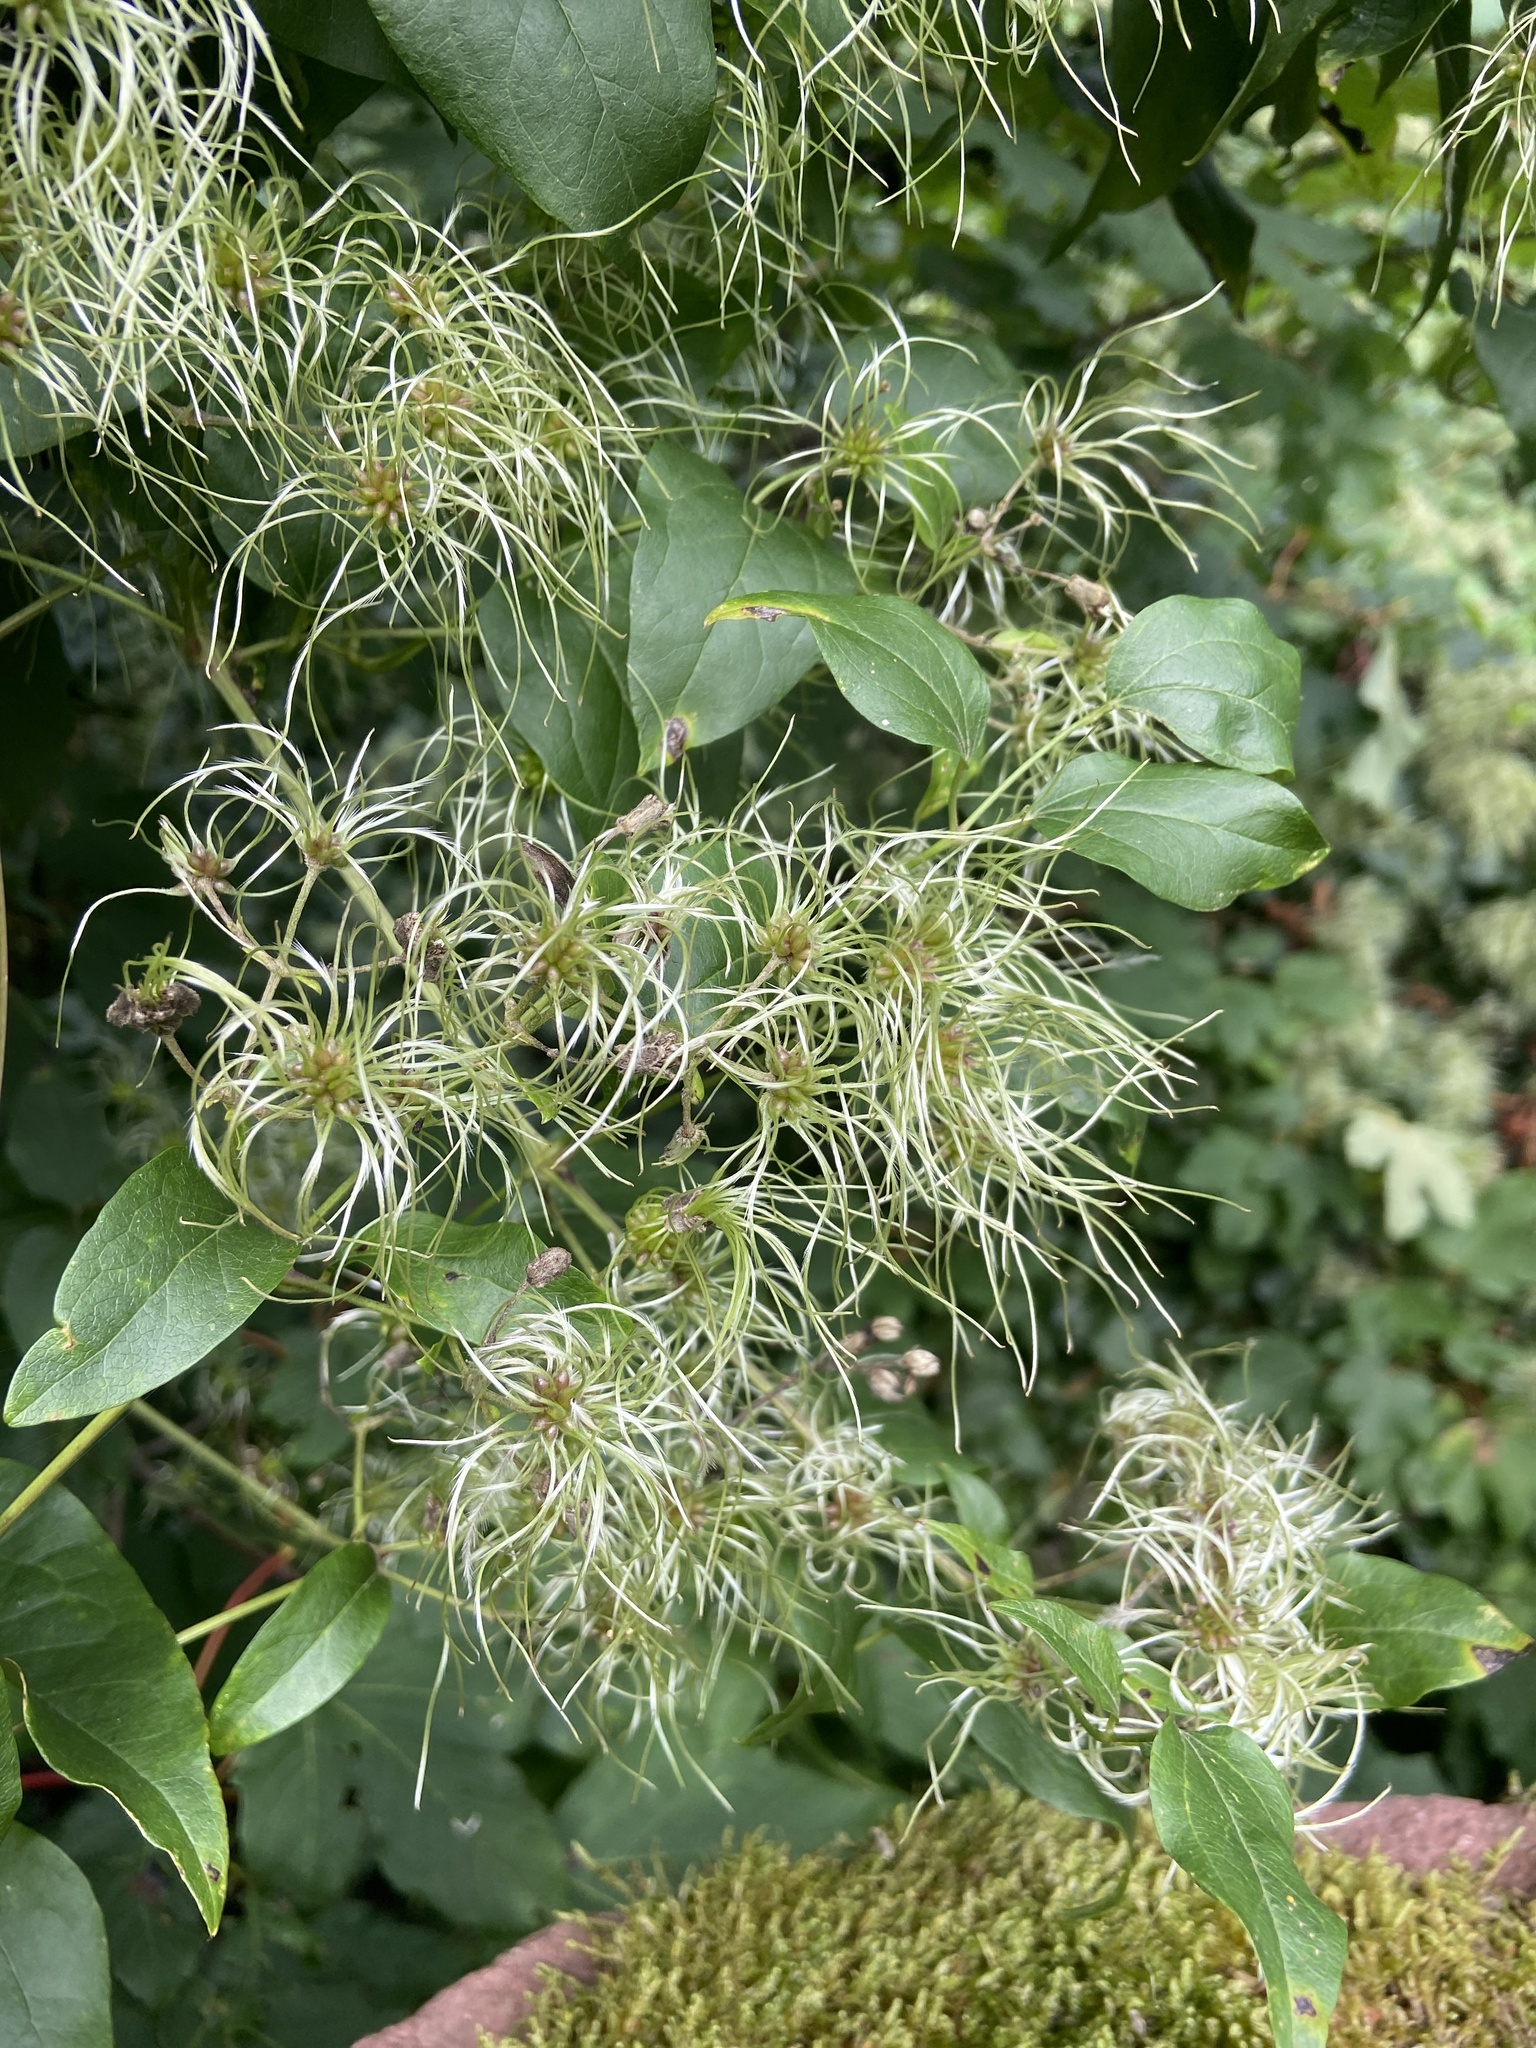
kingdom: Plantae
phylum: Tracheophyta
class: Magnoliopsida
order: Ranunculales
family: Ranunculaceae
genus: Clematis
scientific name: Clematis vitalba
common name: Evergreen clematis
